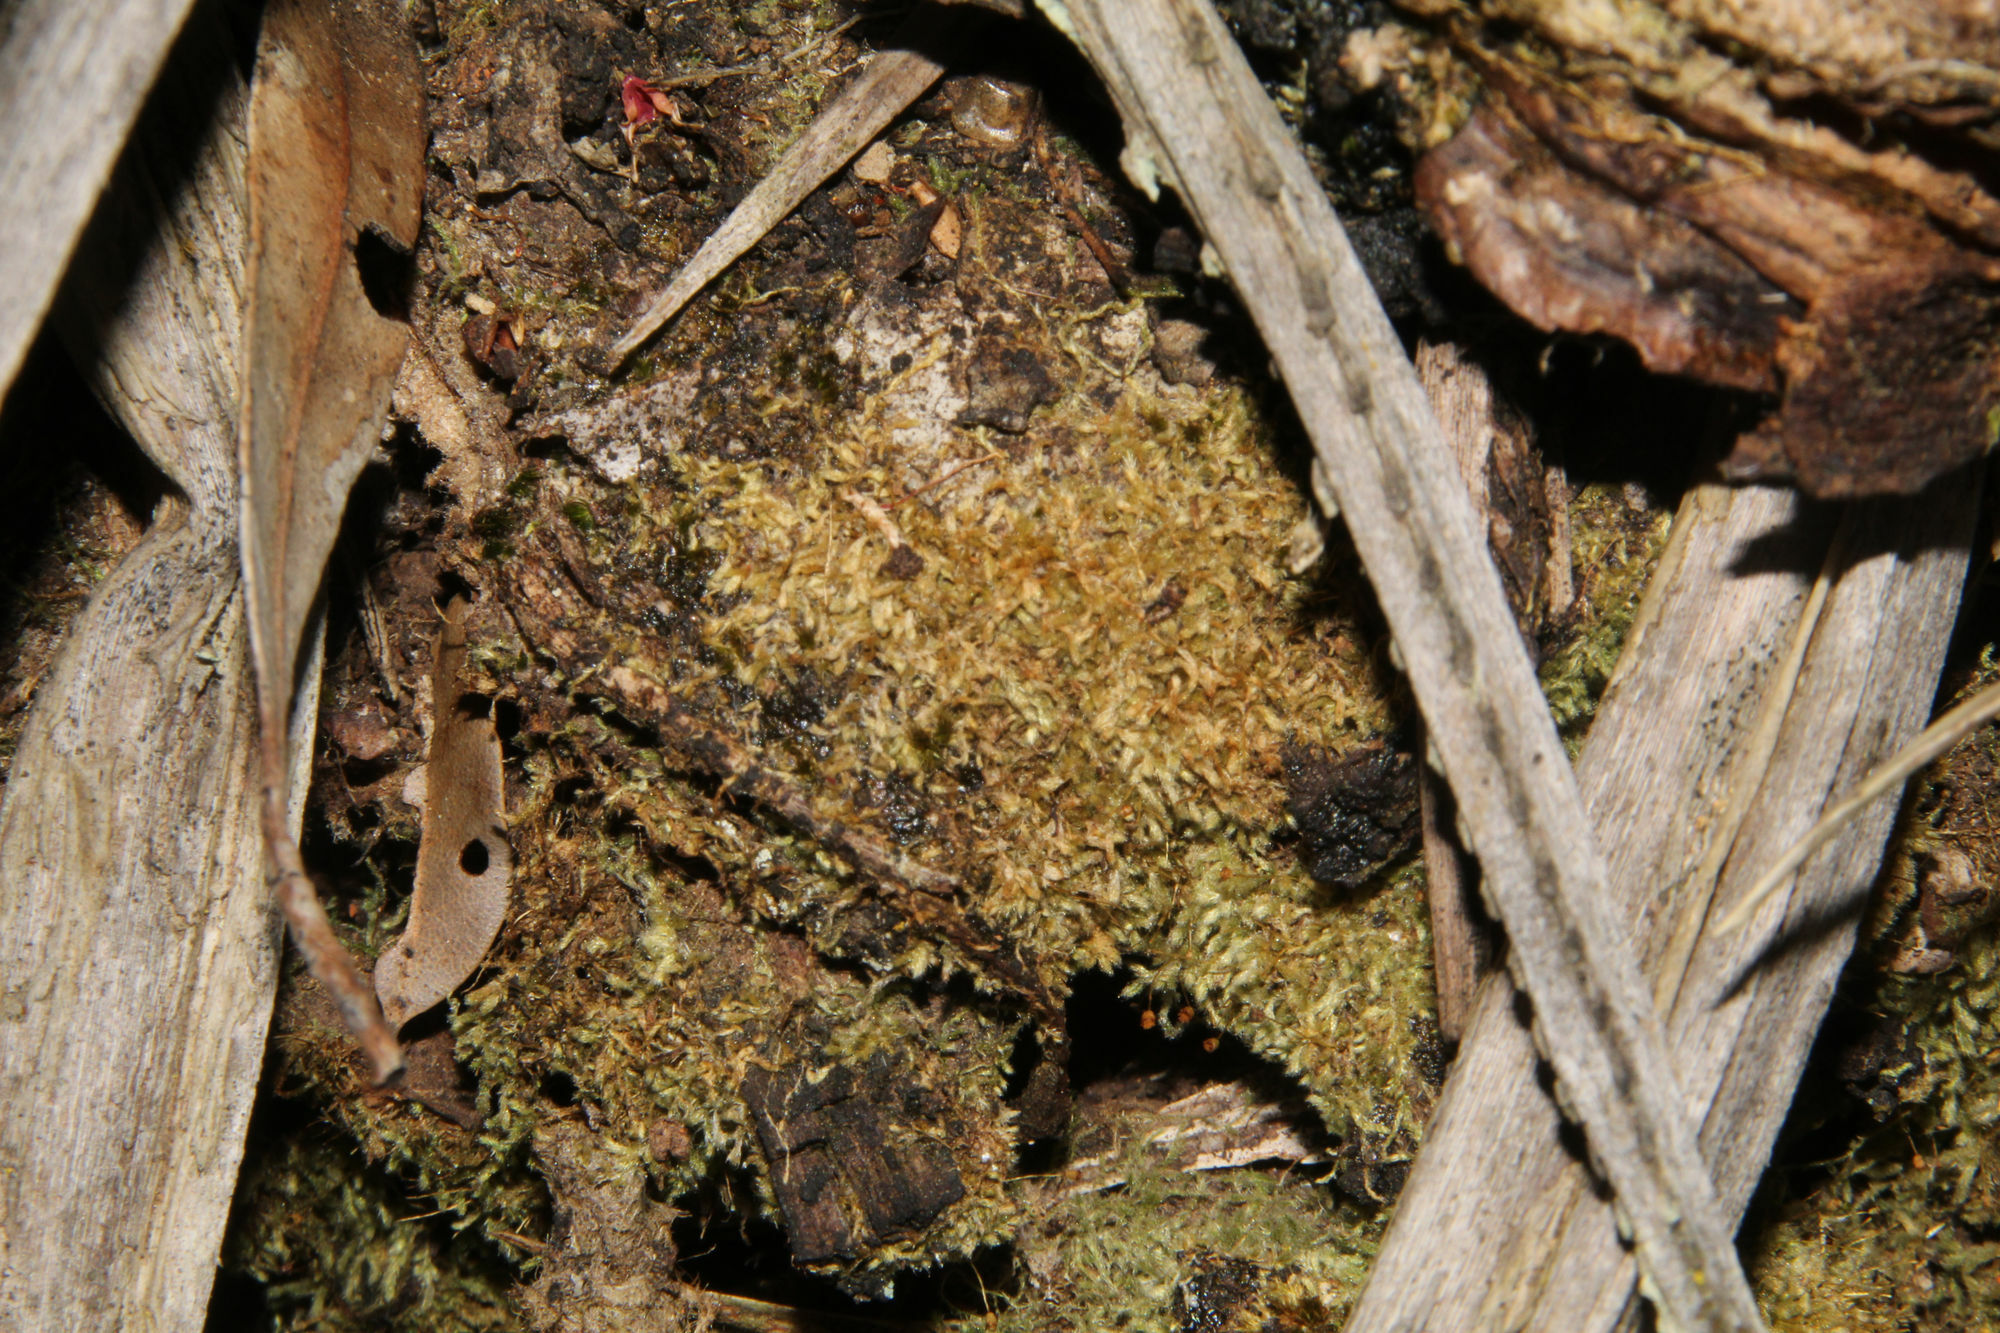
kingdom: Plantae
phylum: Bryophyta
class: Bryopsida
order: Hypnales
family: Fabroniaceae
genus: Fabronia
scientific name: Fabronia hampeana
